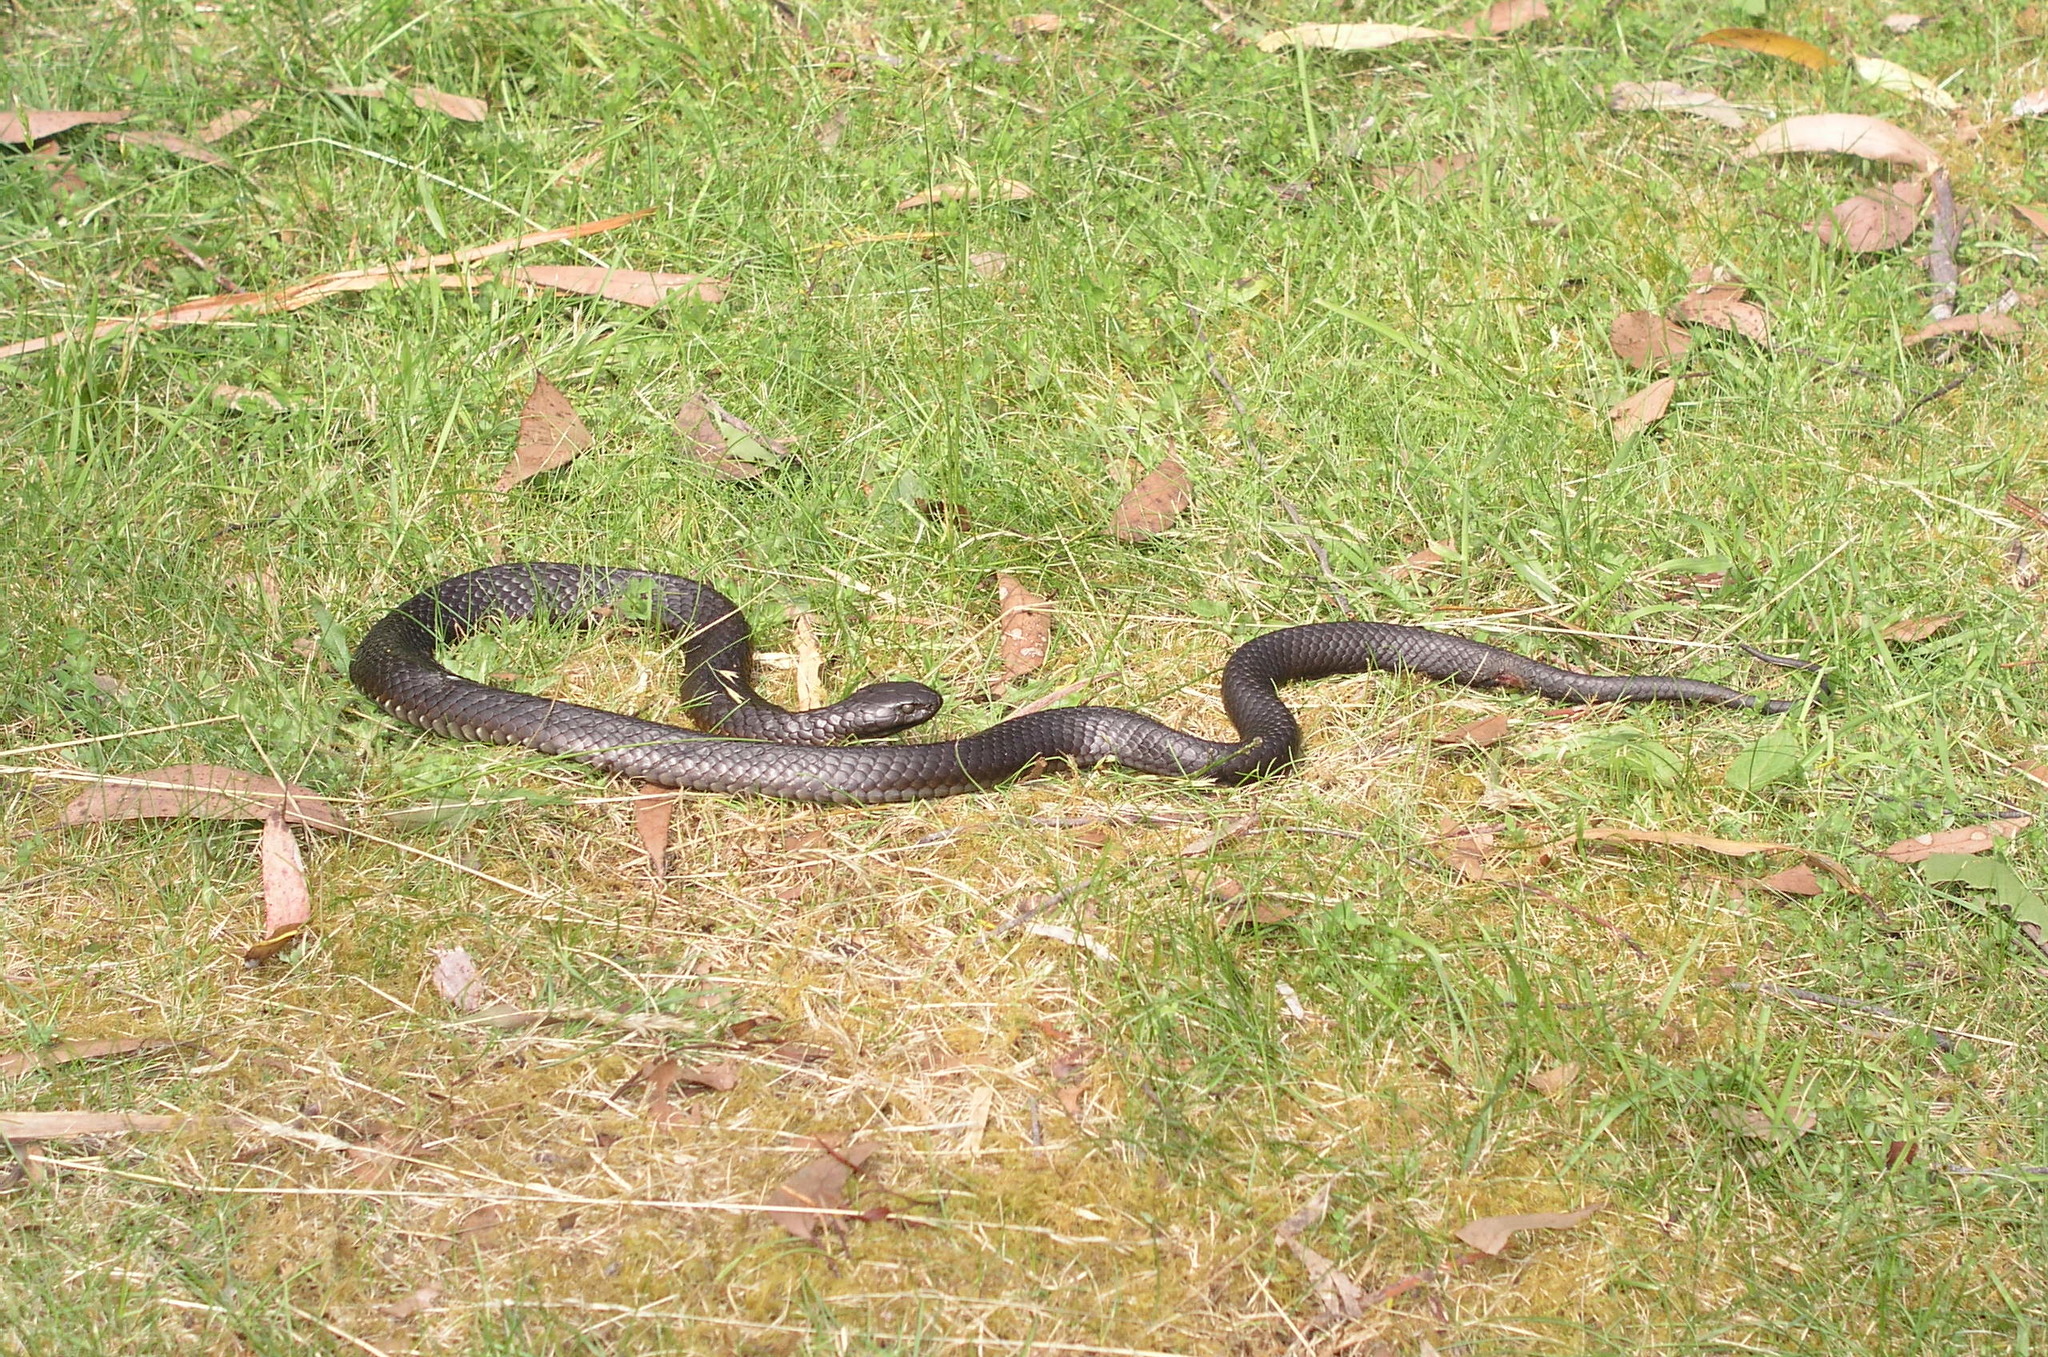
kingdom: Animalia
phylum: Chordata
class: Squamata
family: Elapidae
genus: Notechis
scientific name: Notechis scutatus
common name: Mainland tiger snake
